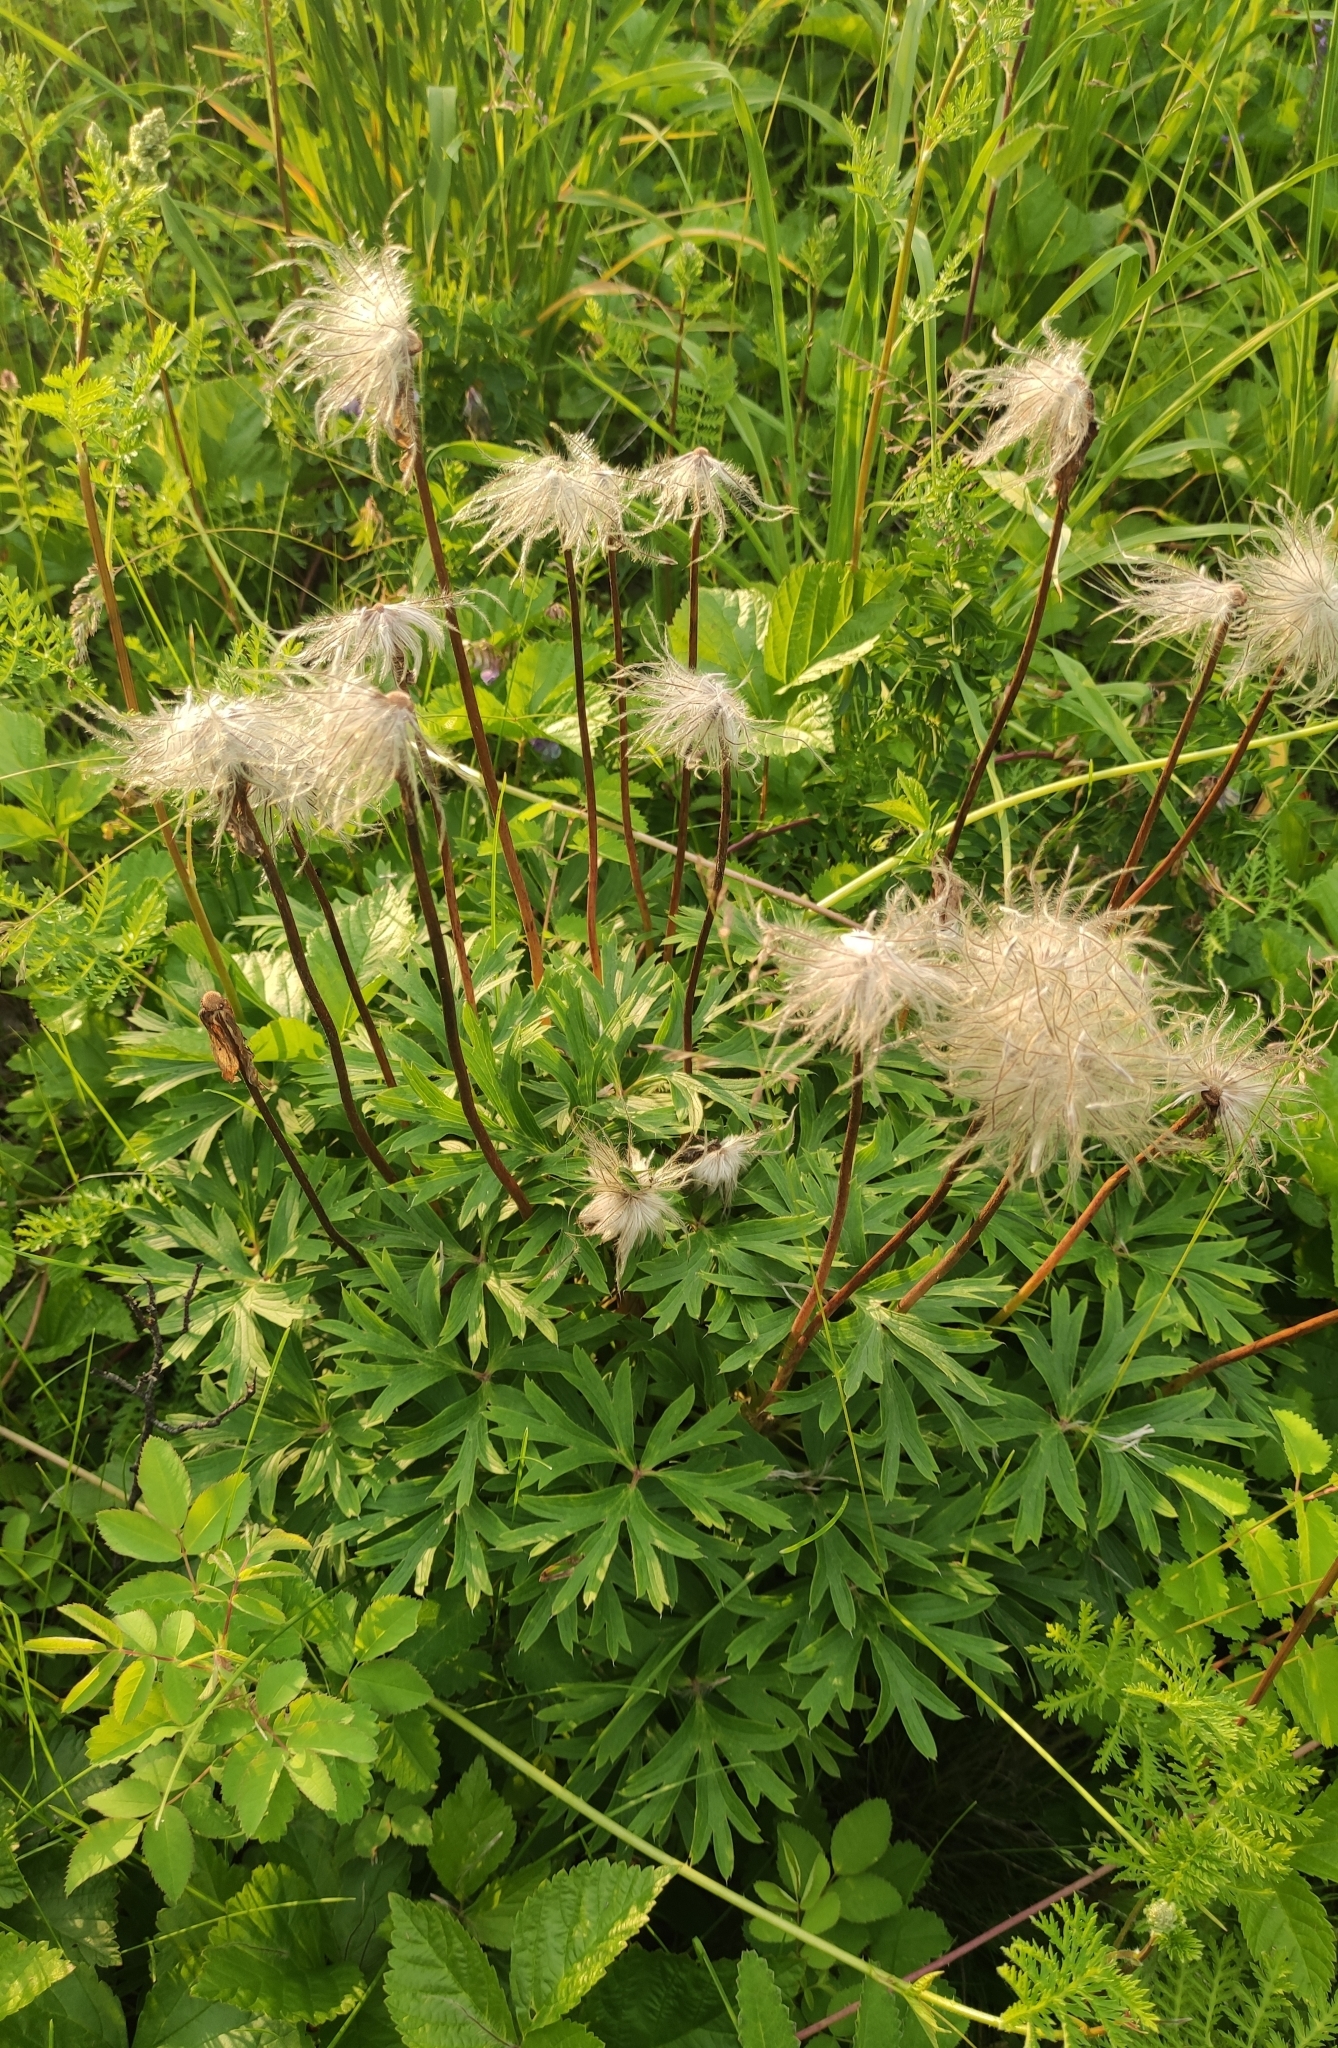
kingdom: Plantae
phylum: Tracheophyta
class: Magnoliopsida
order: Ranunculales
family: Ranunculaceae
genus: Pulsatilla
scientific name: Pulsatilla patens
